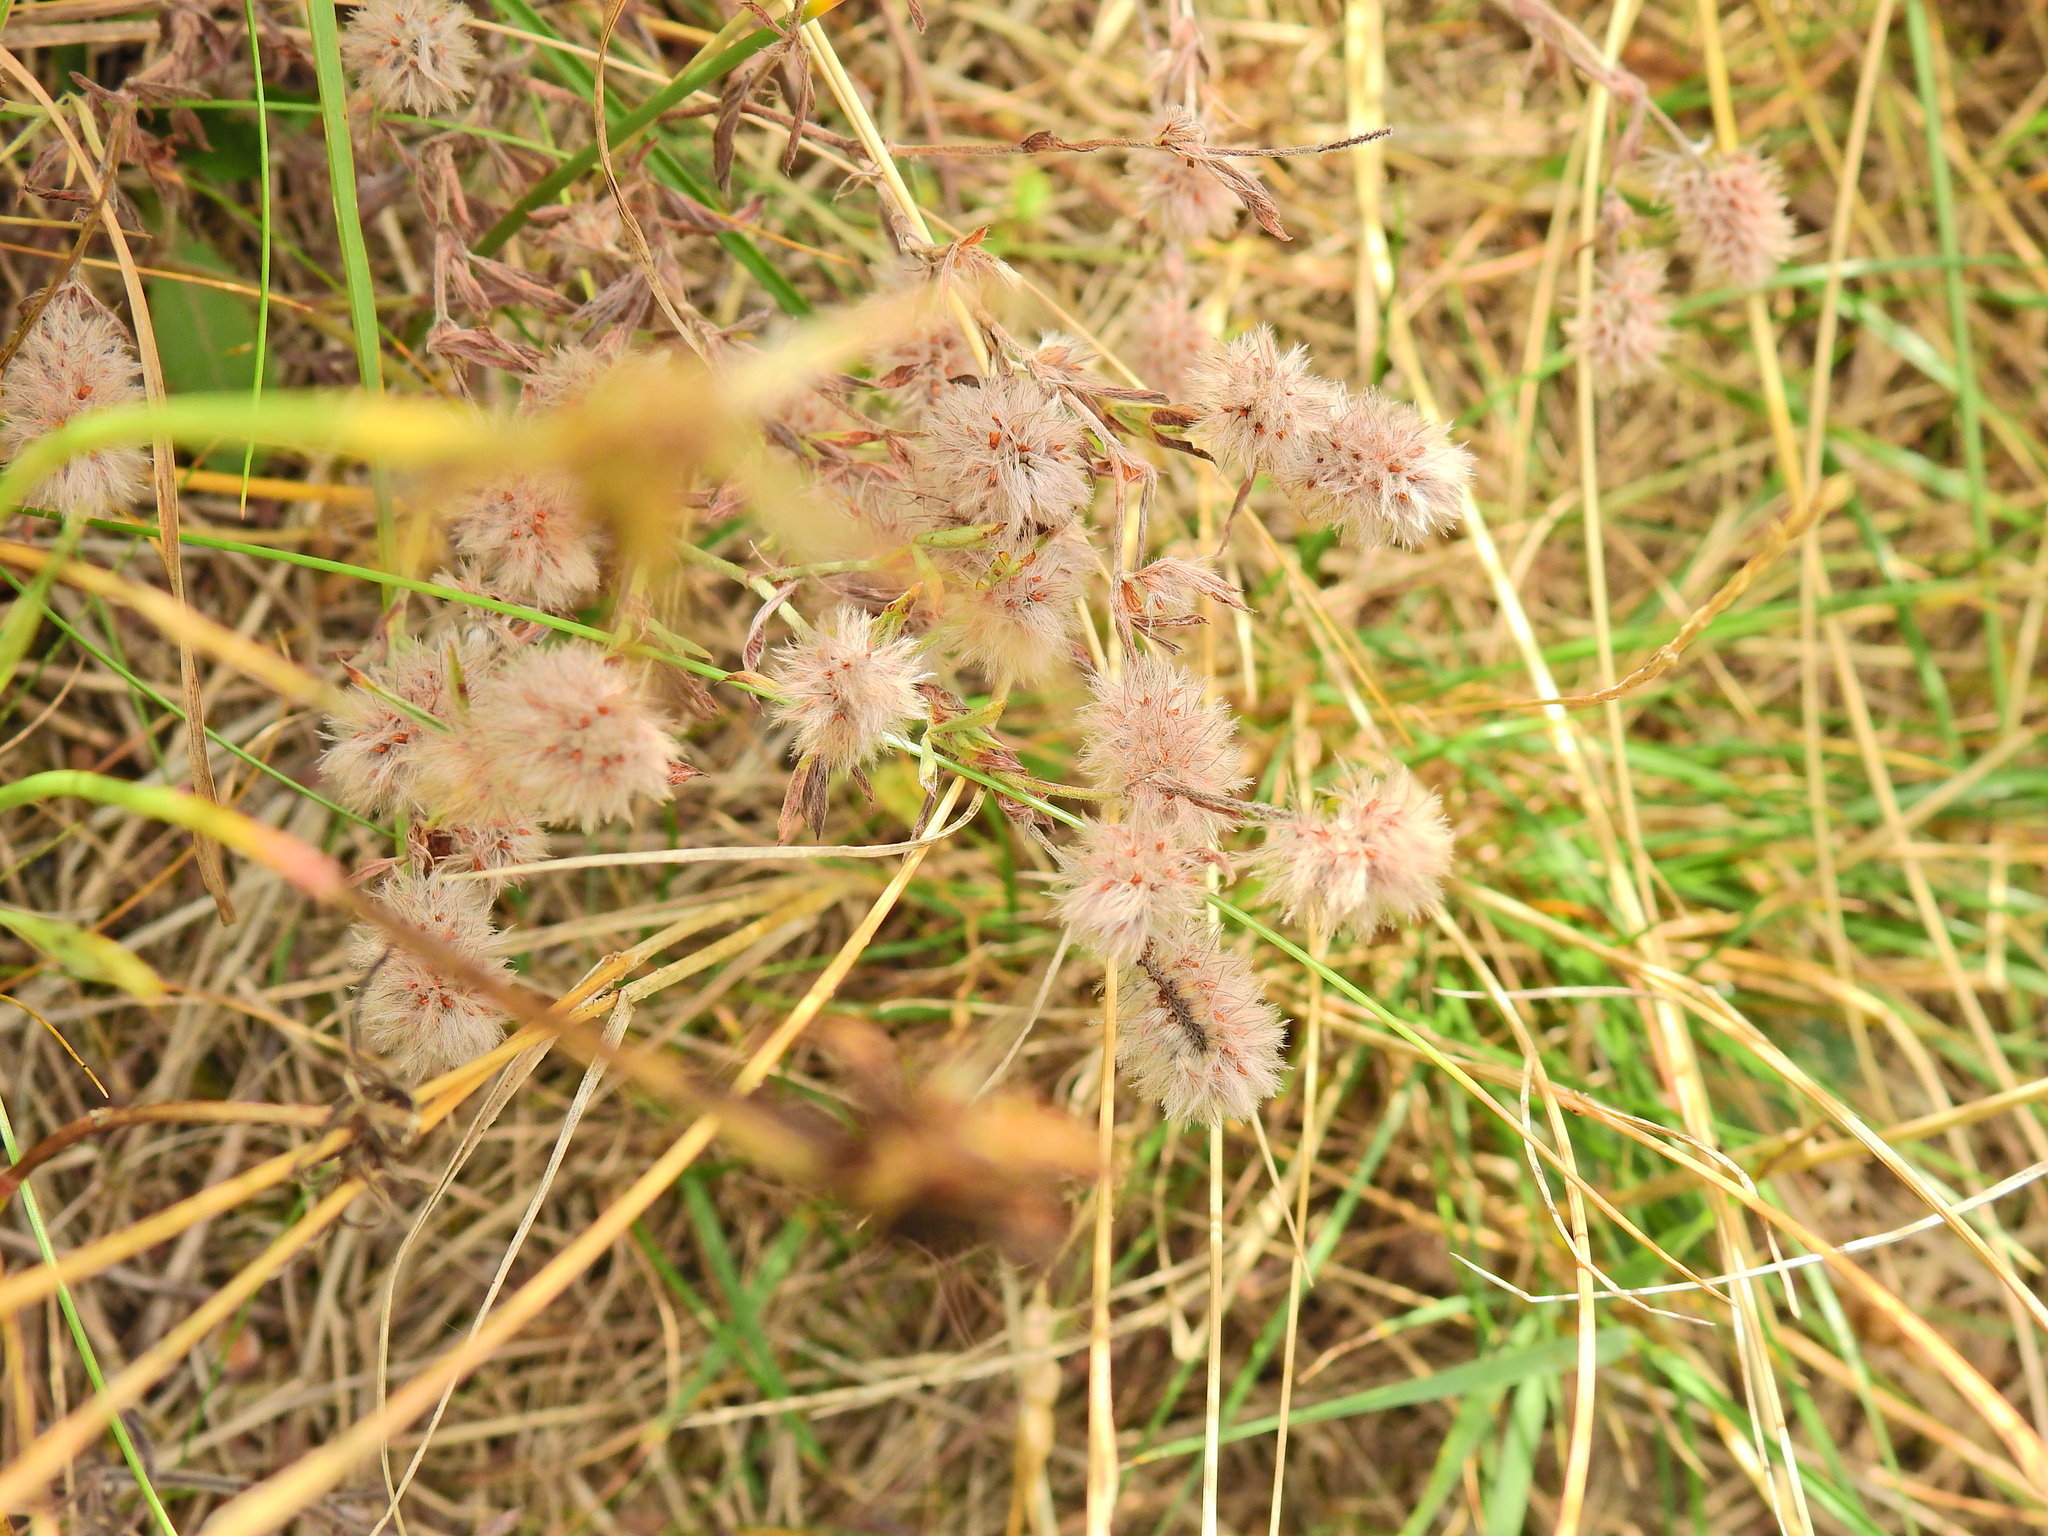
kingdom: Plantae
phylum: Tracheophyta
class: Magnoliopsida
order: Fabales
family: Fabaceae
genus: Trifolium
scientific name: Trifolium arvense
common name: Hare's-foot clover
